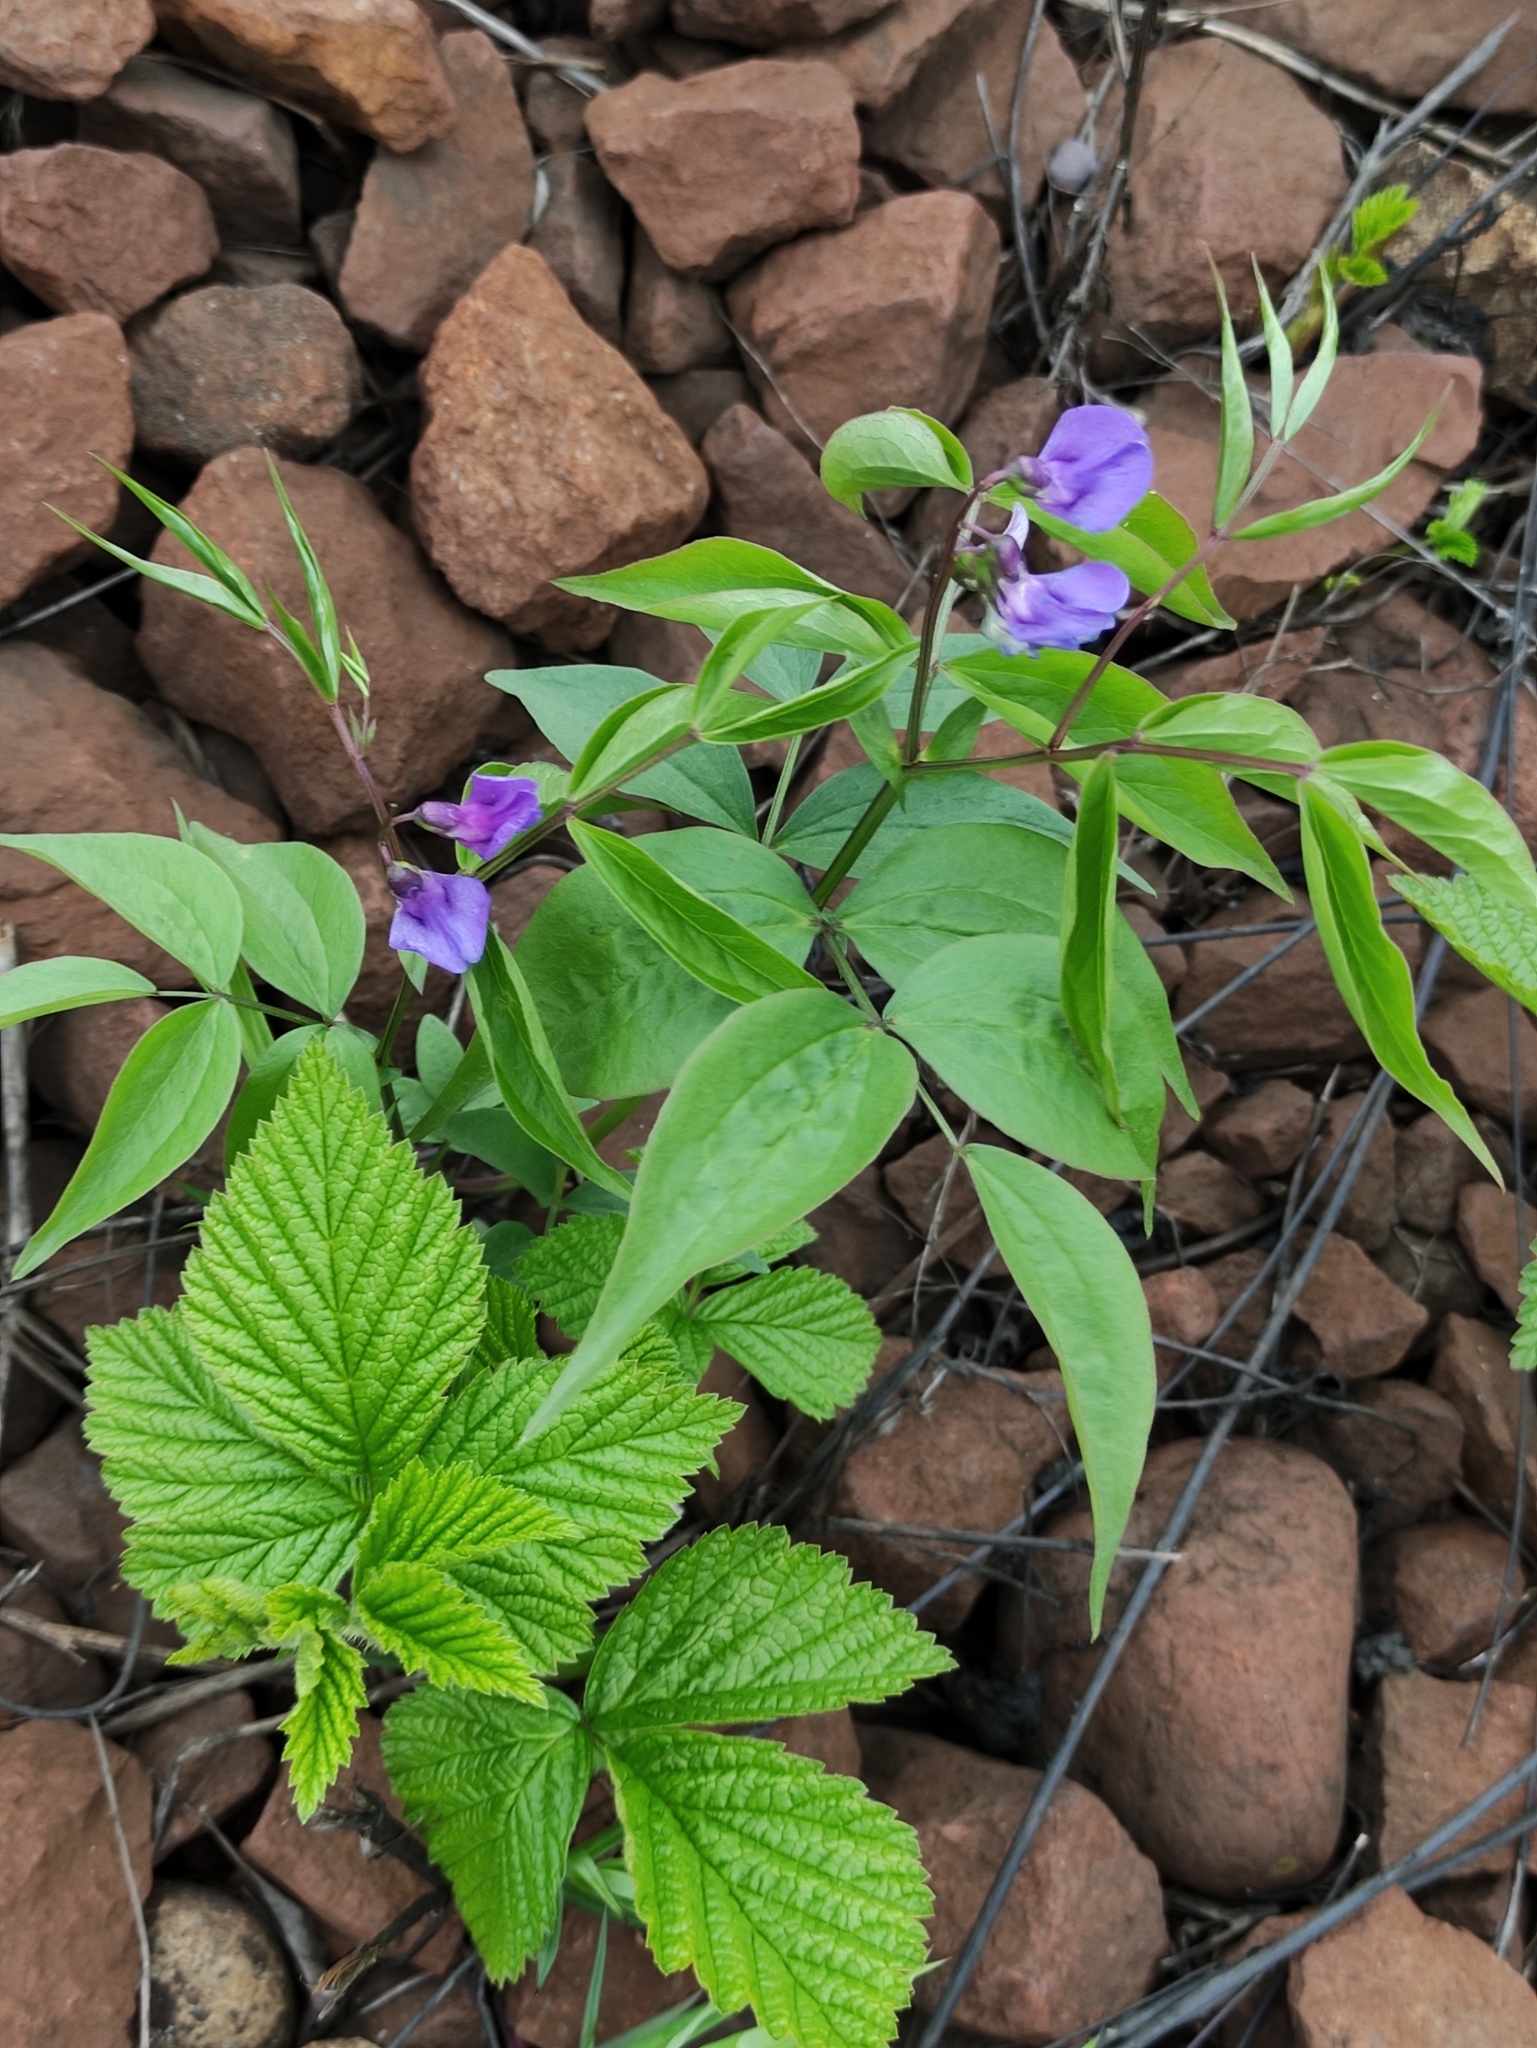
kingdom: Plantae
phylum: Tracheophyta
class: Magnoliopsida
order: Fabales
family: Fabaceae
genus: Lathyrus
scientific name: Lathyrus vernus
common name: Spring pea
